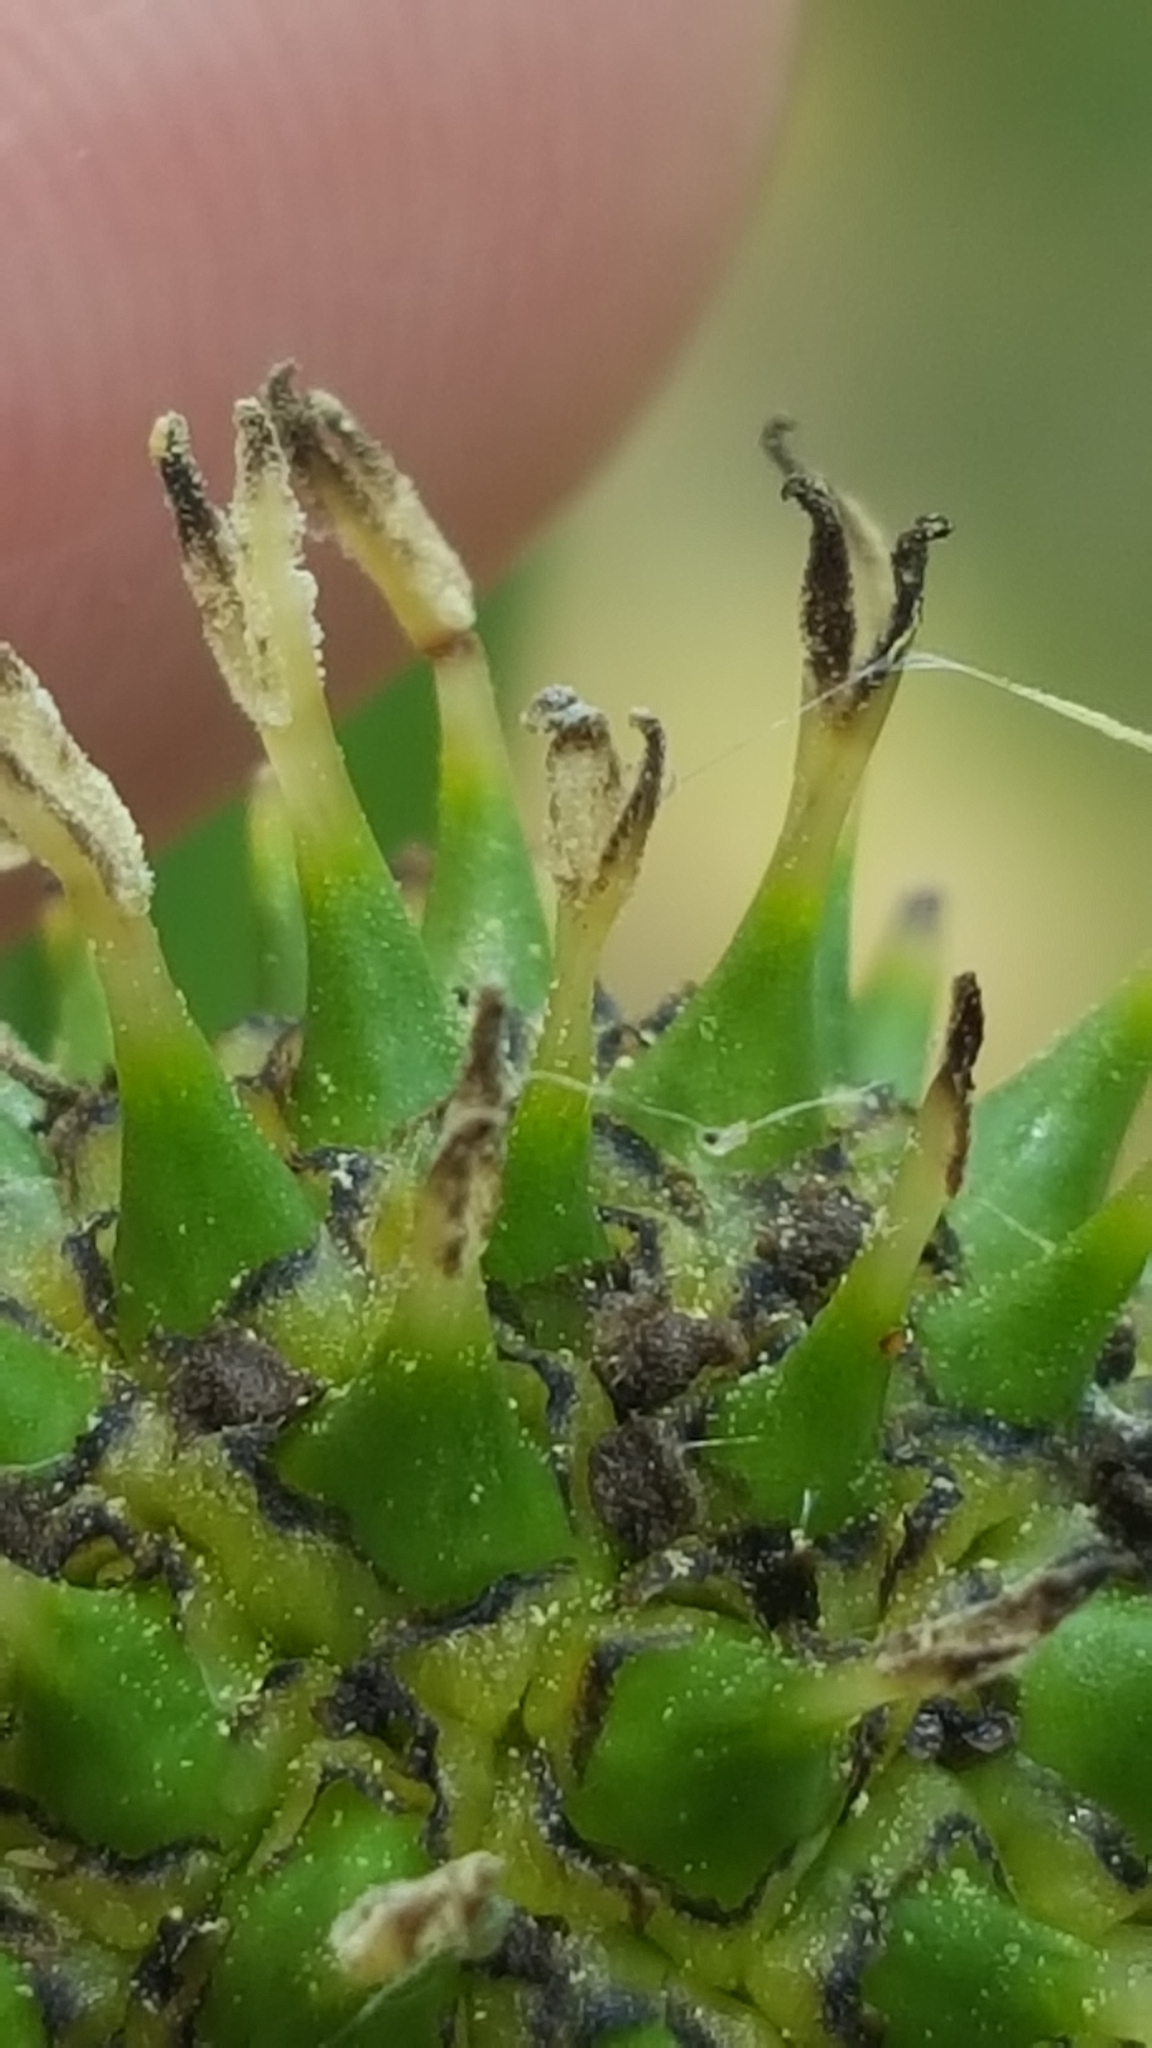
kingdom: Plantae
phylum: Tracheophyta
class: Liliopsida
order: Poales
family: Typhaceae
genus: Sparganium
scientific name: Sparganium eurycarpum
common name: Broad-fruited burreed
